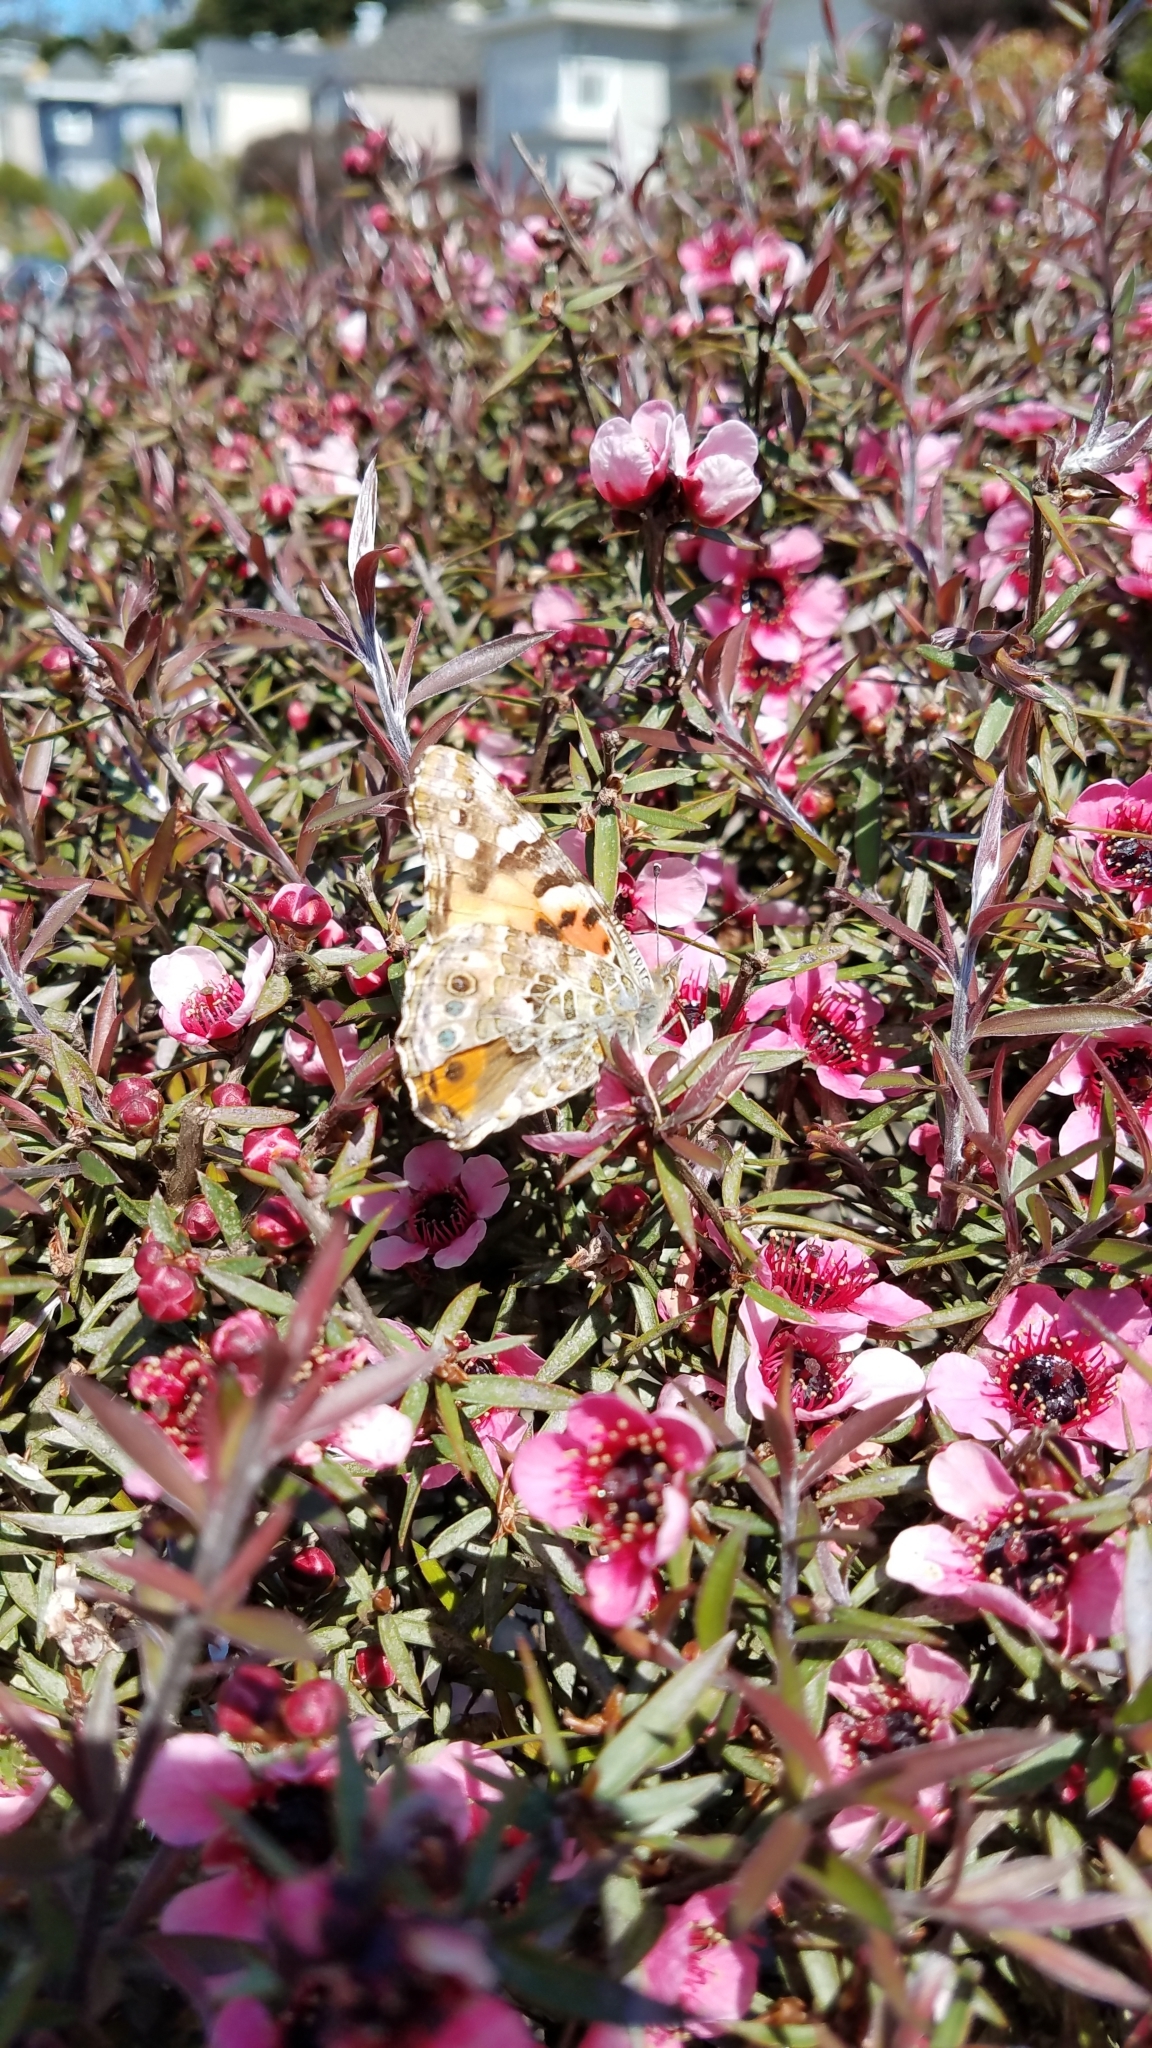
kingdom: Animalia
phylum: Arthropoda
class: Insecta
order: Lepidoptera
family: Nymphalidae
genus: Vanessa
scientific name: Vanessa cardui
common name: Painted lady
